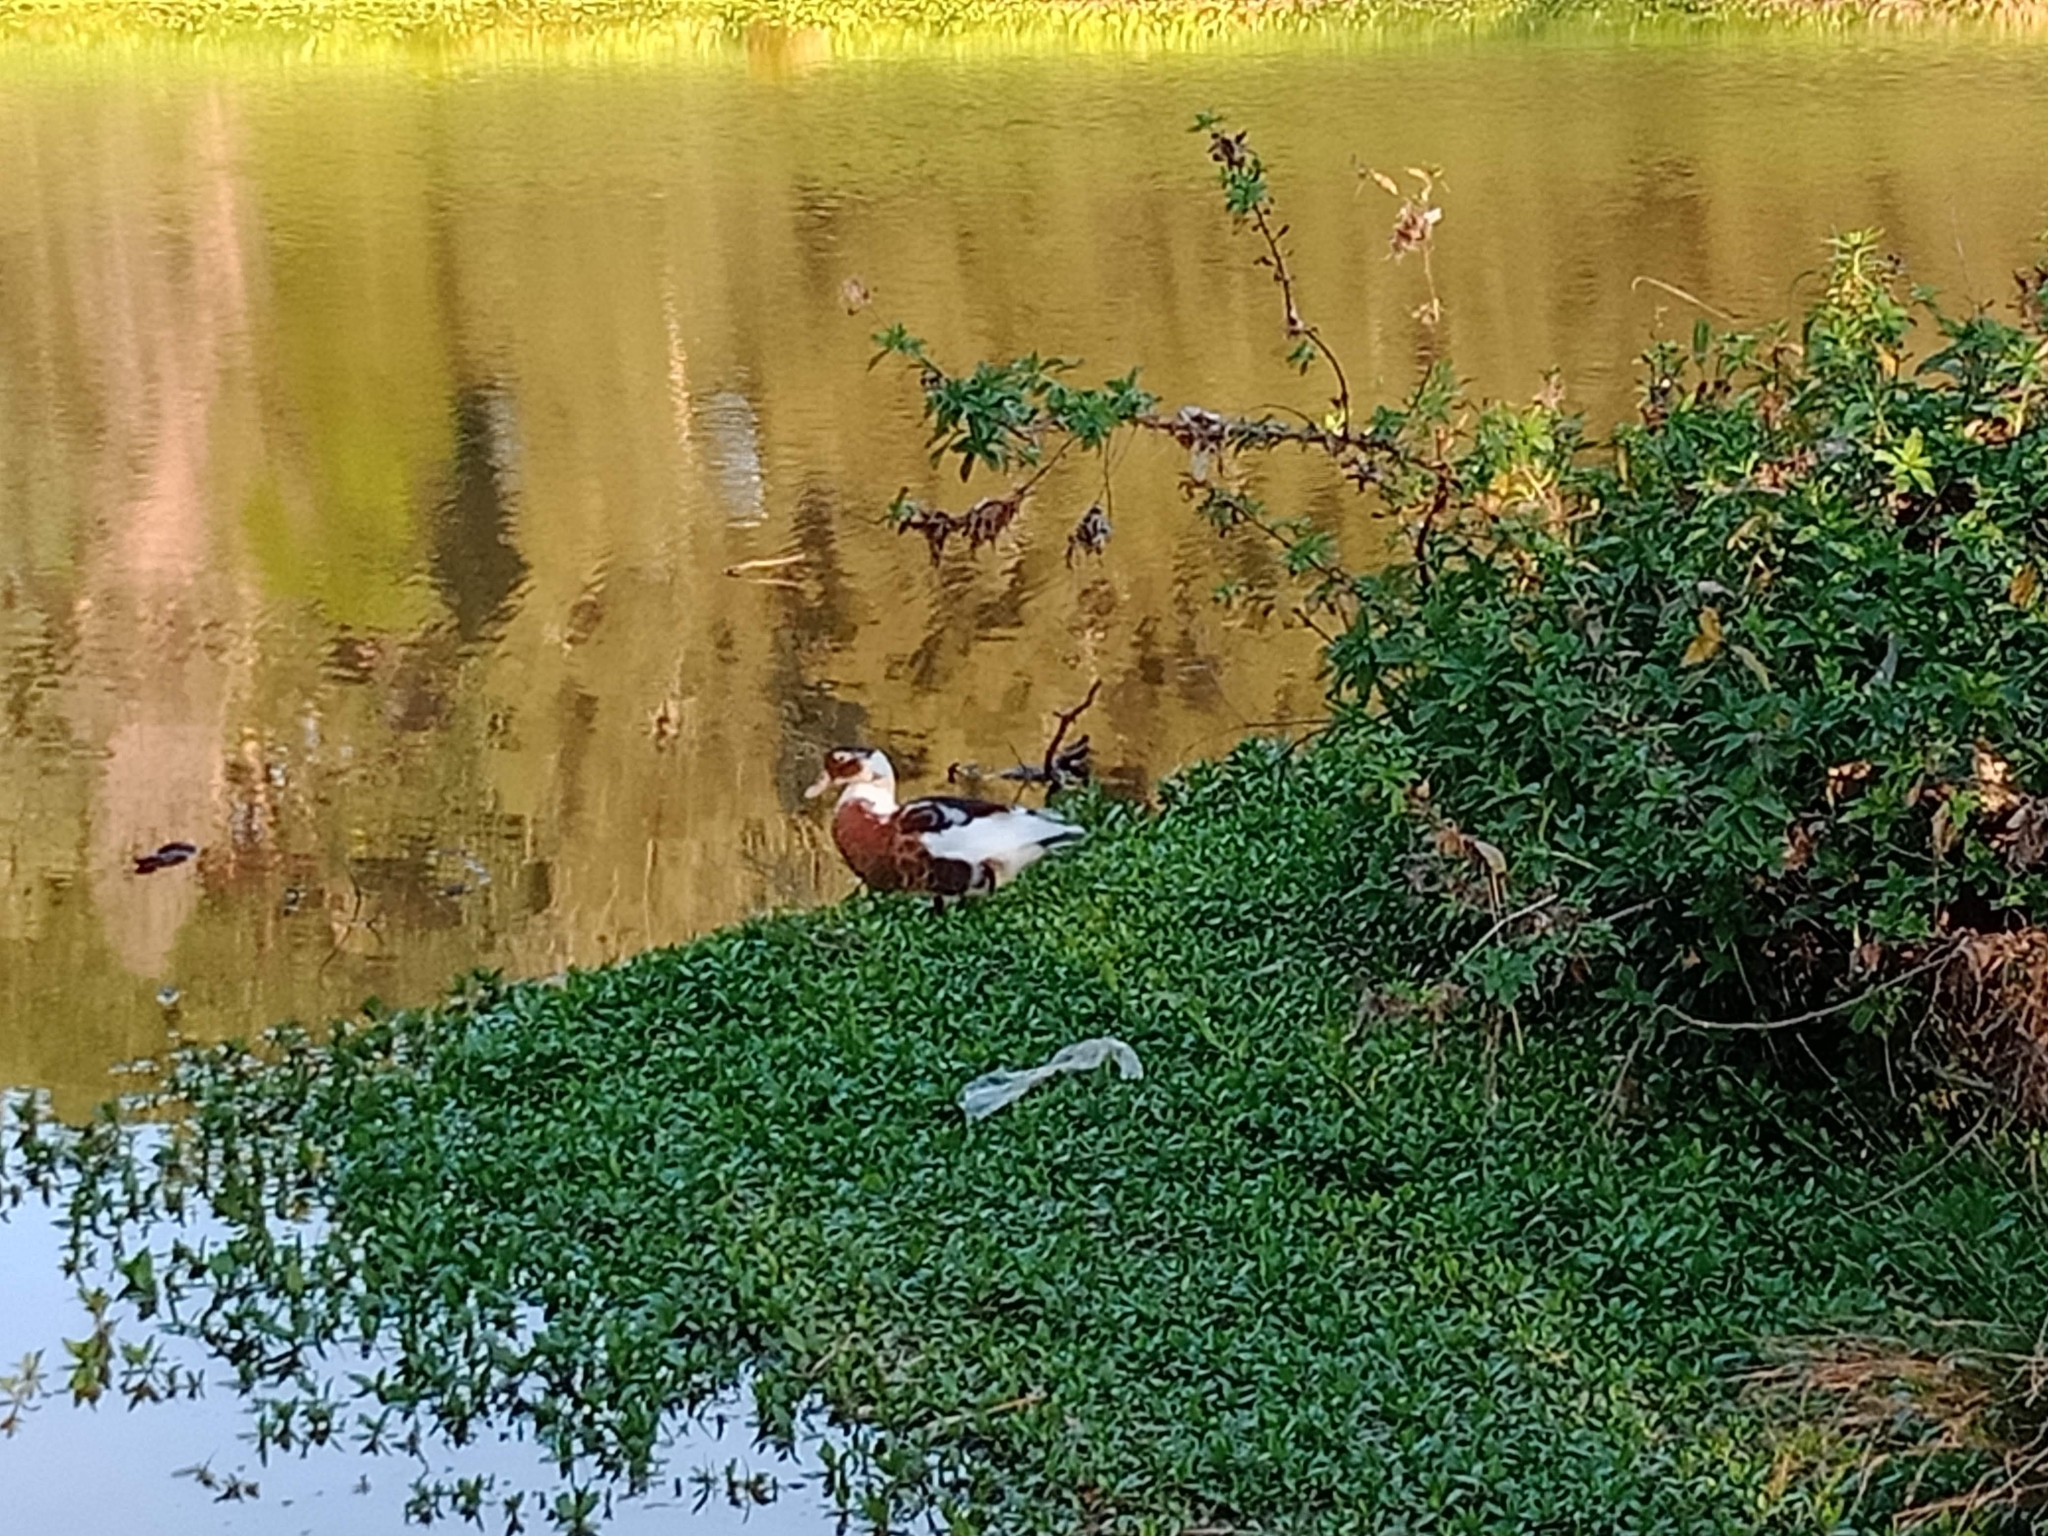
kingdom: Animalia
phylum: Chordata
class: Aves
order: Anseriformes
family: Anatidae
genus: Anas
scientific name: Anas platyrhynchos
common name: Mallard
